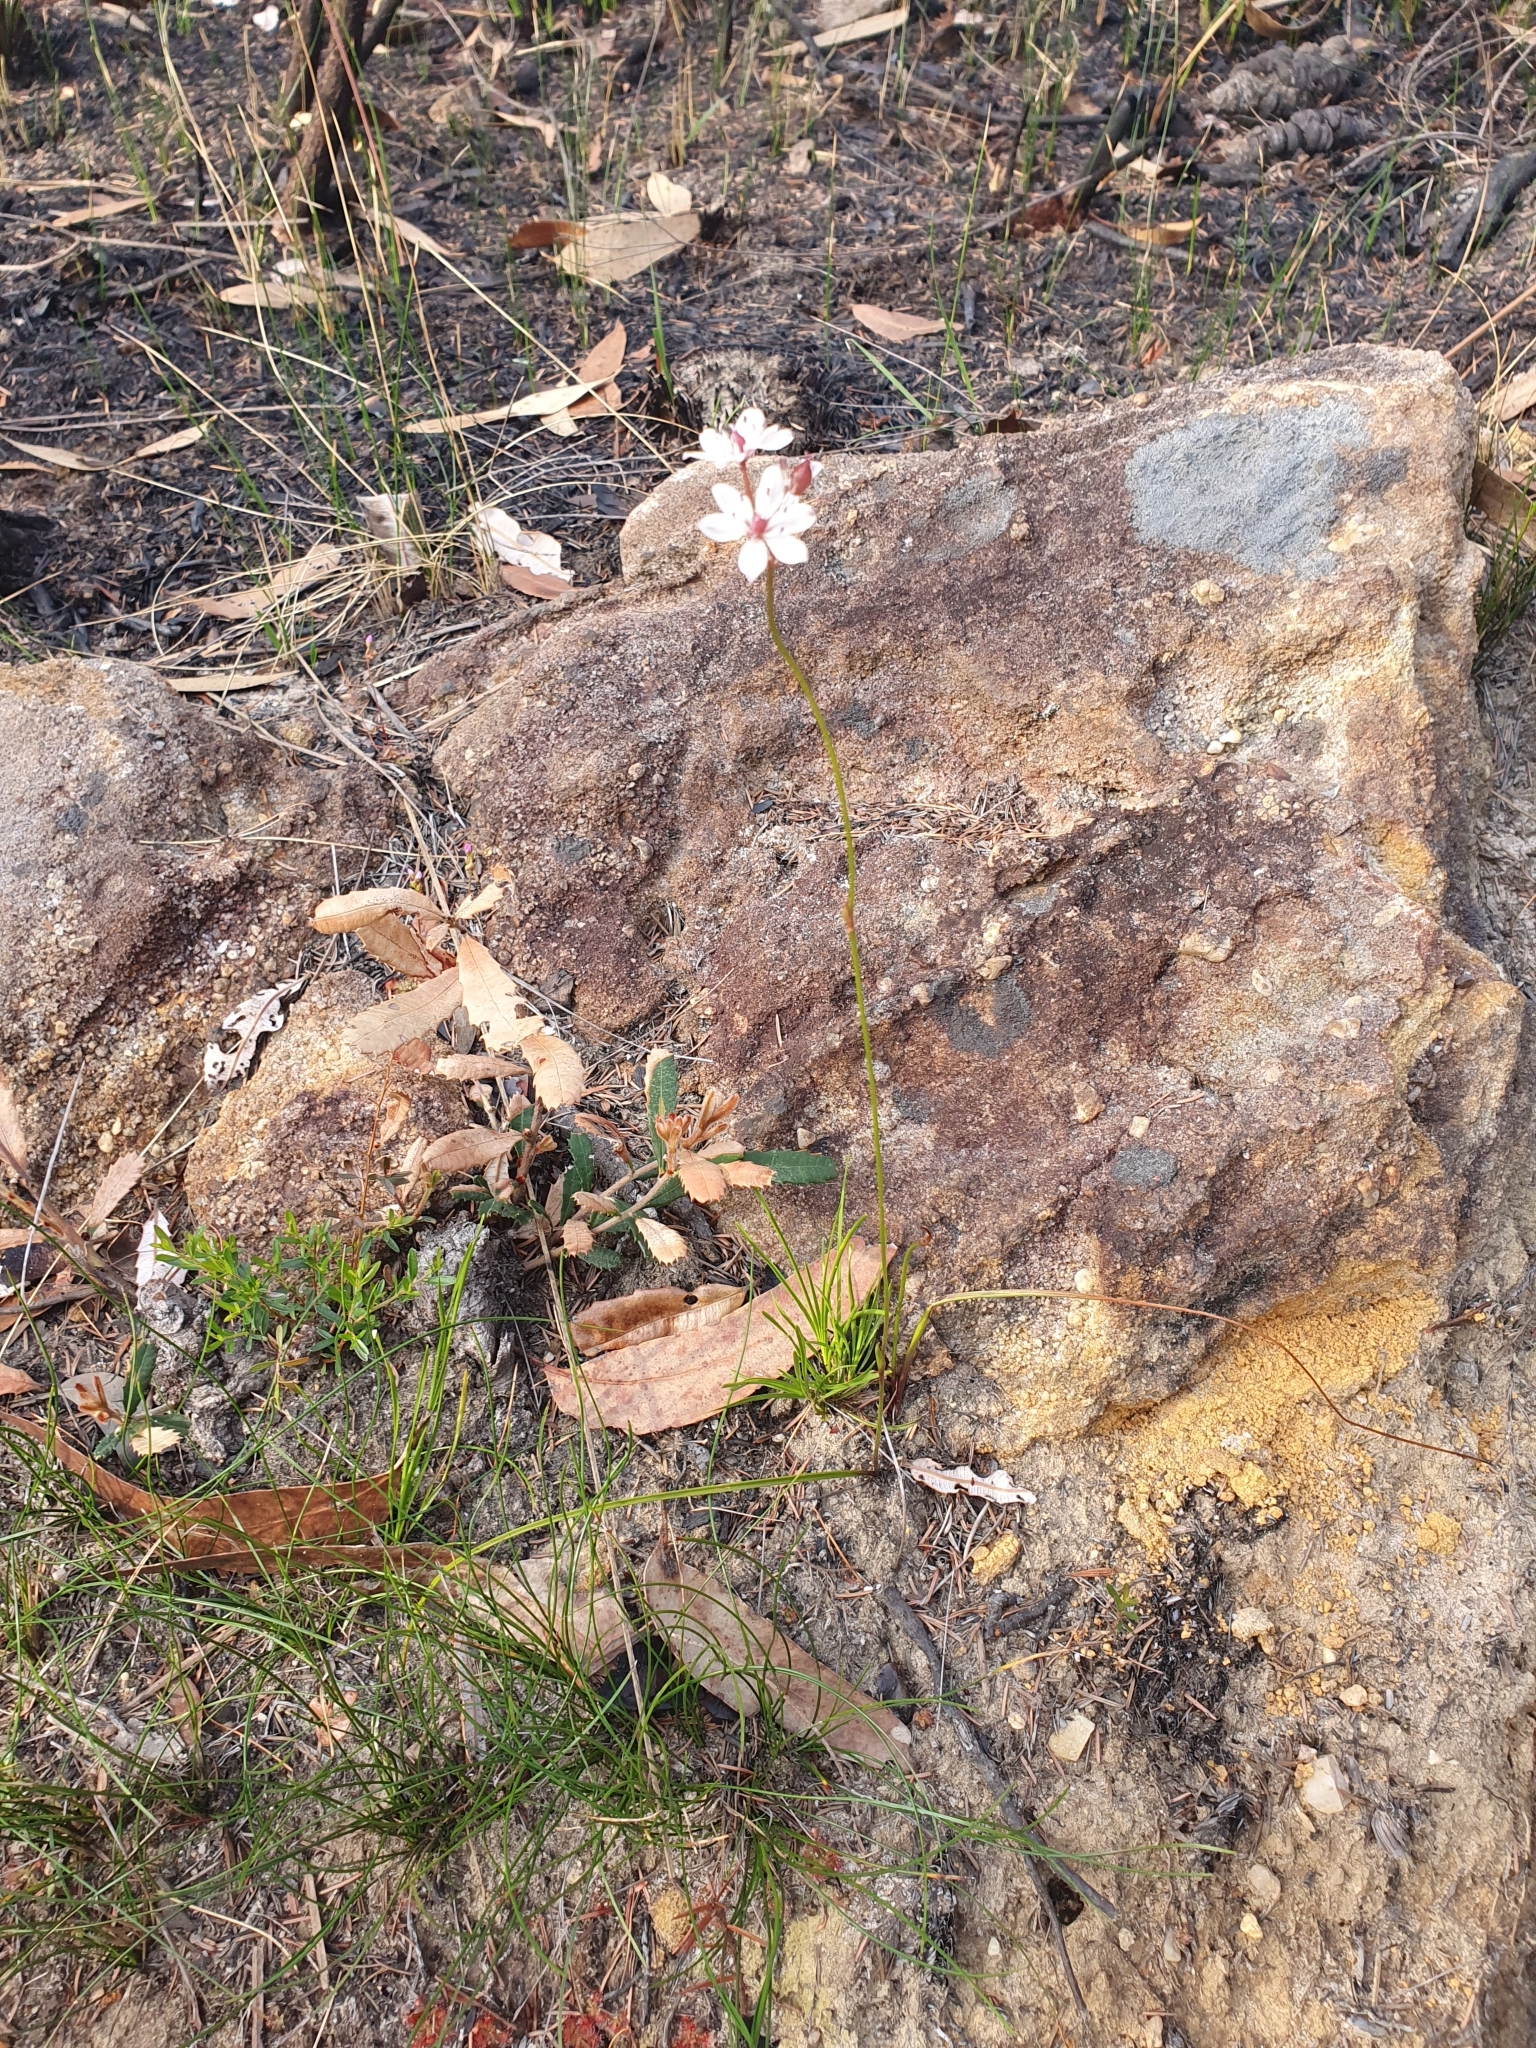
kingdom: Plantae
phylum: Tracheophyta
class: Liliopsida
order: Liliales
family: Colchicaceae
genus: Burchardia
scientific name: Burchardia umbellata
